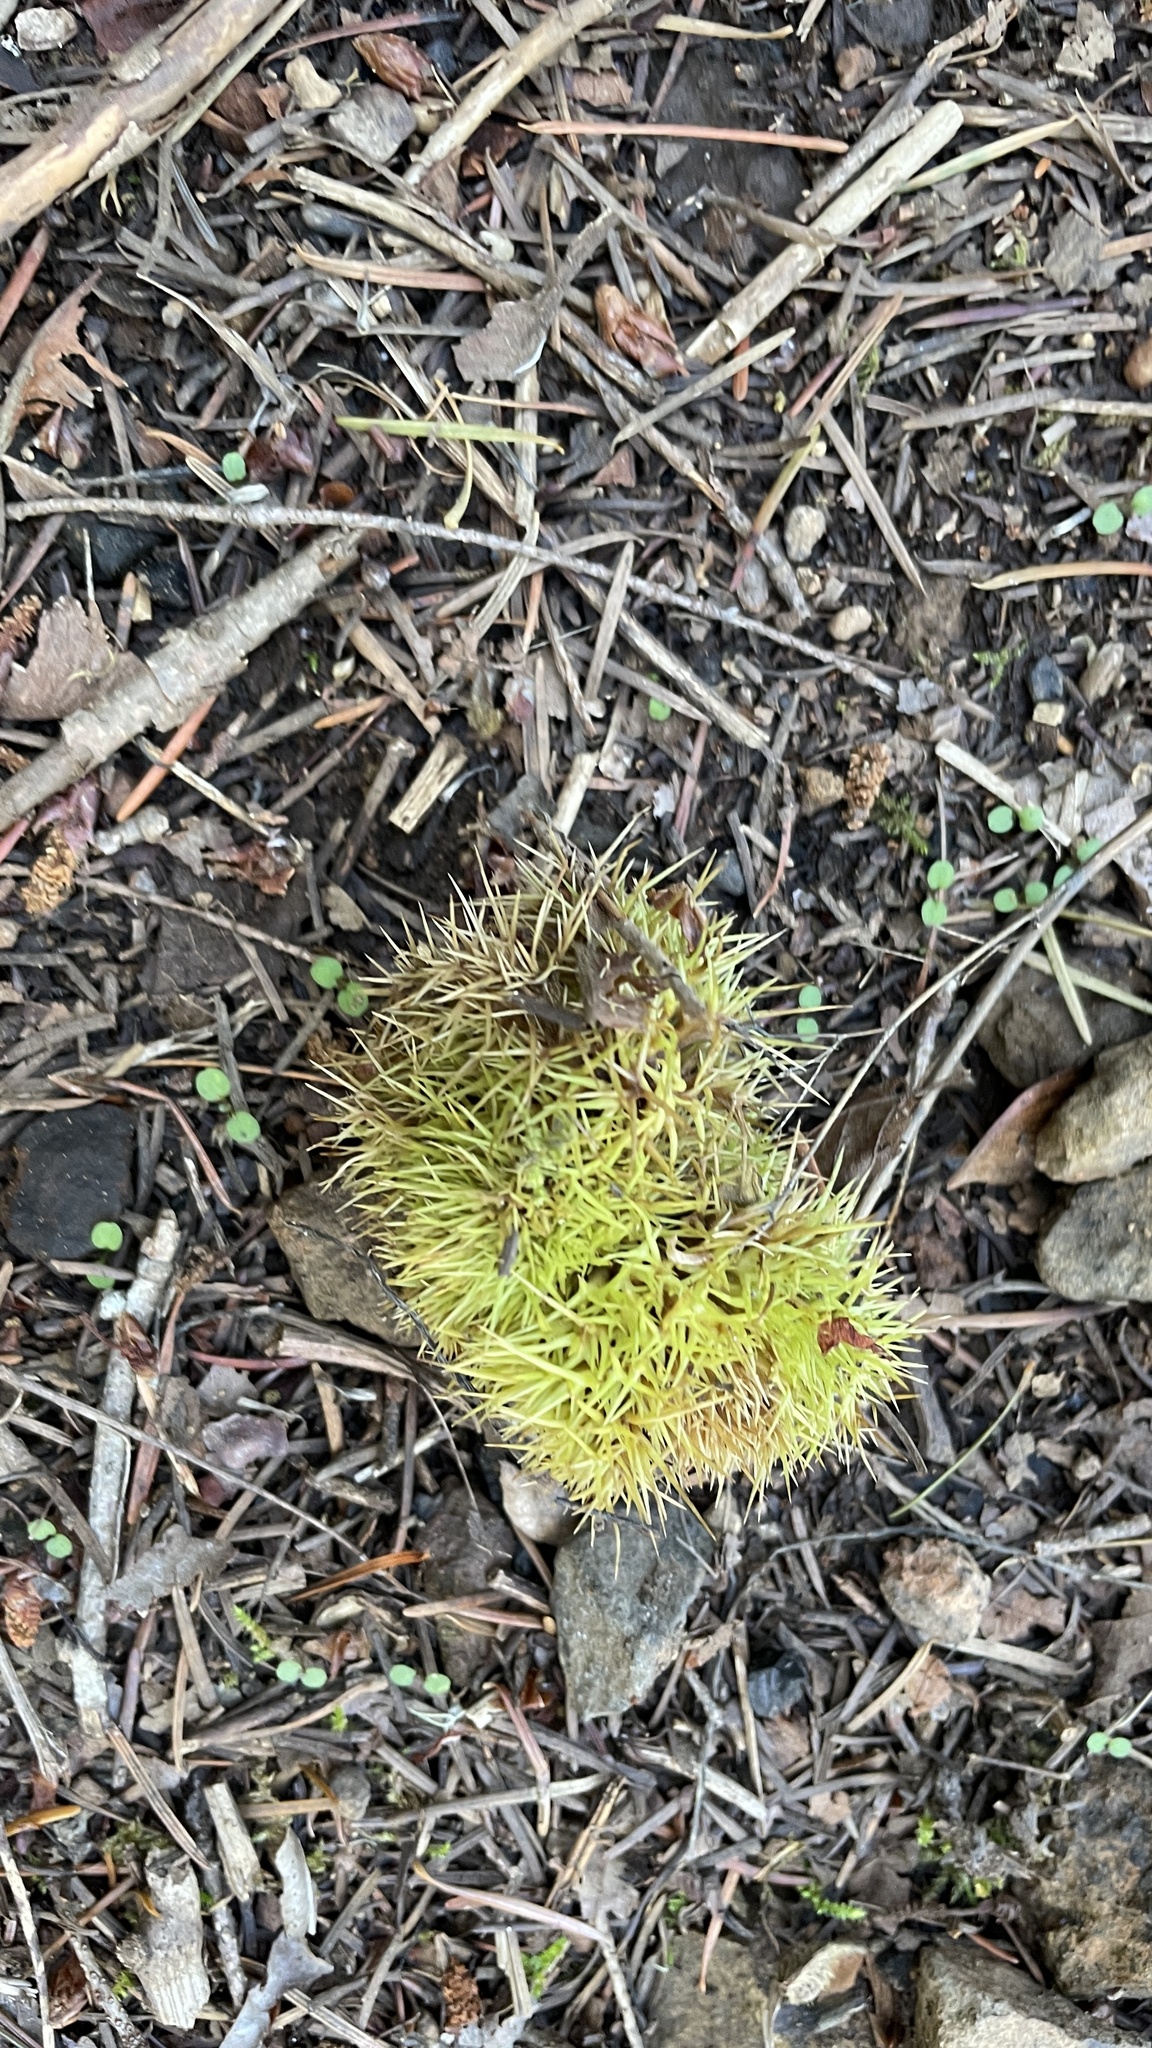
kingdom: Plantae
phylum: Tracheophyta
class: Magnoliopsida
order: Fagales
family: Fagaceae
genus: Chrysolepis
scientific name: Chrysolepis chrysophylla
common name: Giant chinquapin
